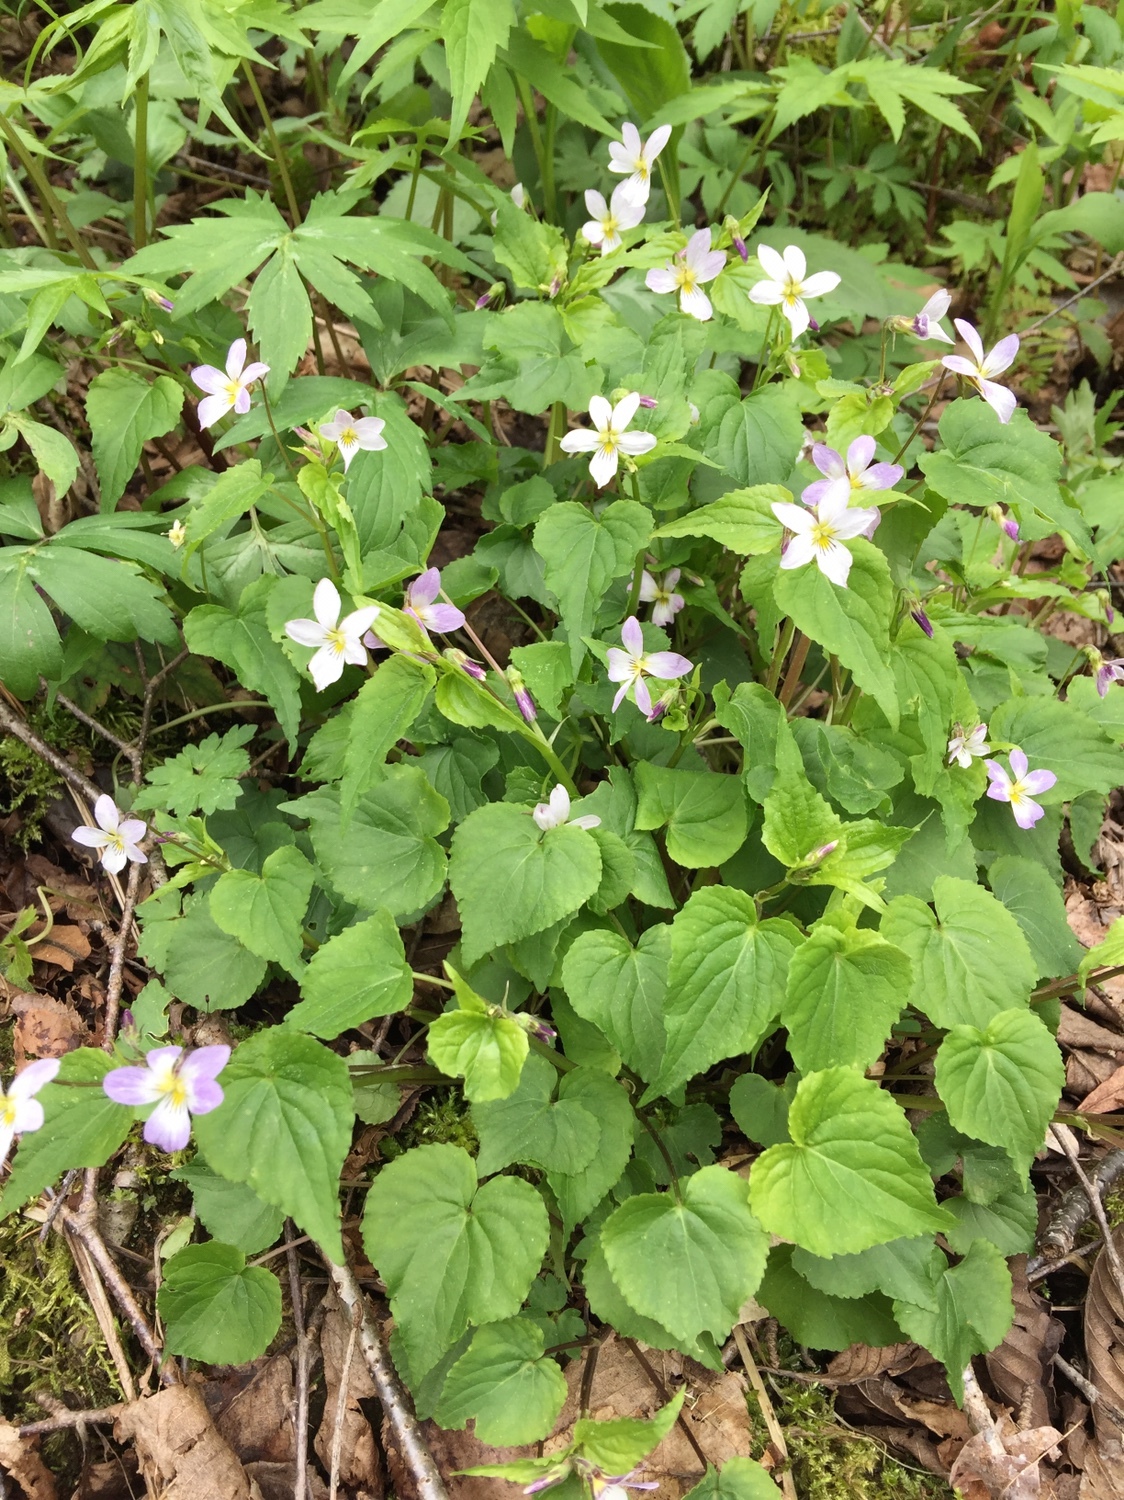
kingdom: Plantae
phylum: Tracheophyta
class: Magnoliopsida
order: Malpighiales
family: Violaceae
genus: Viola
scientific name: Viola canadensis
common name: Canada violet
